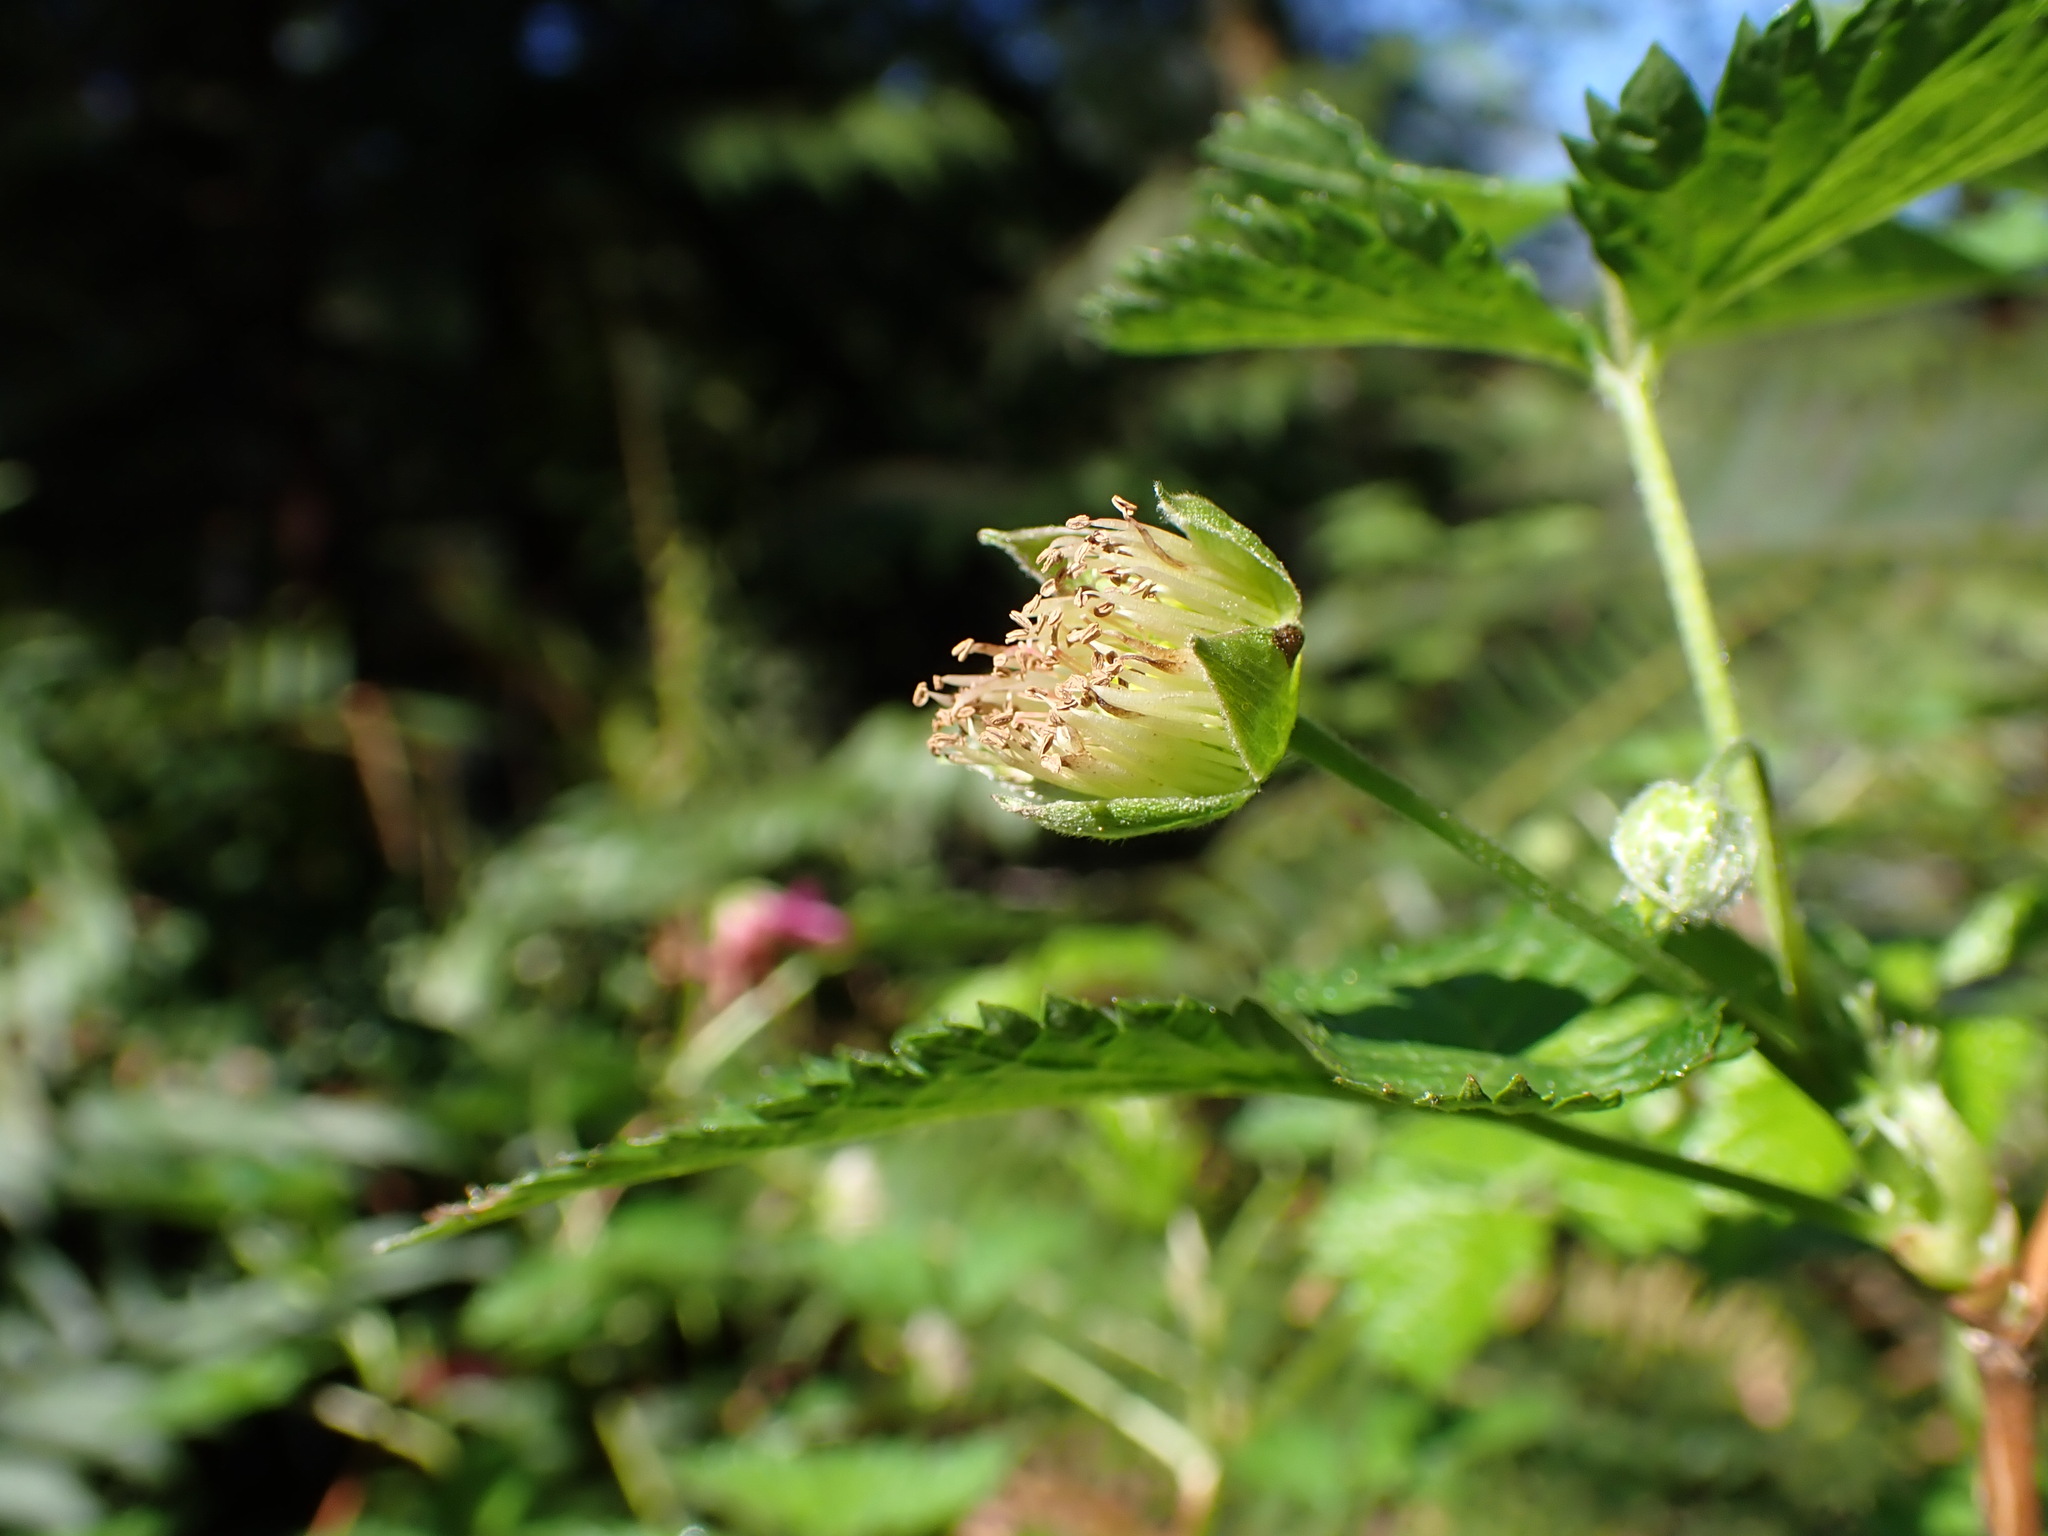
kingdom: Plantae
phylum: Tracheophyta
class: Magnoliopsida
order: Rosales
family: Rosaceae
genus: Rubus
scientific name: Rubus spectabilis
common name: Salmonberry
